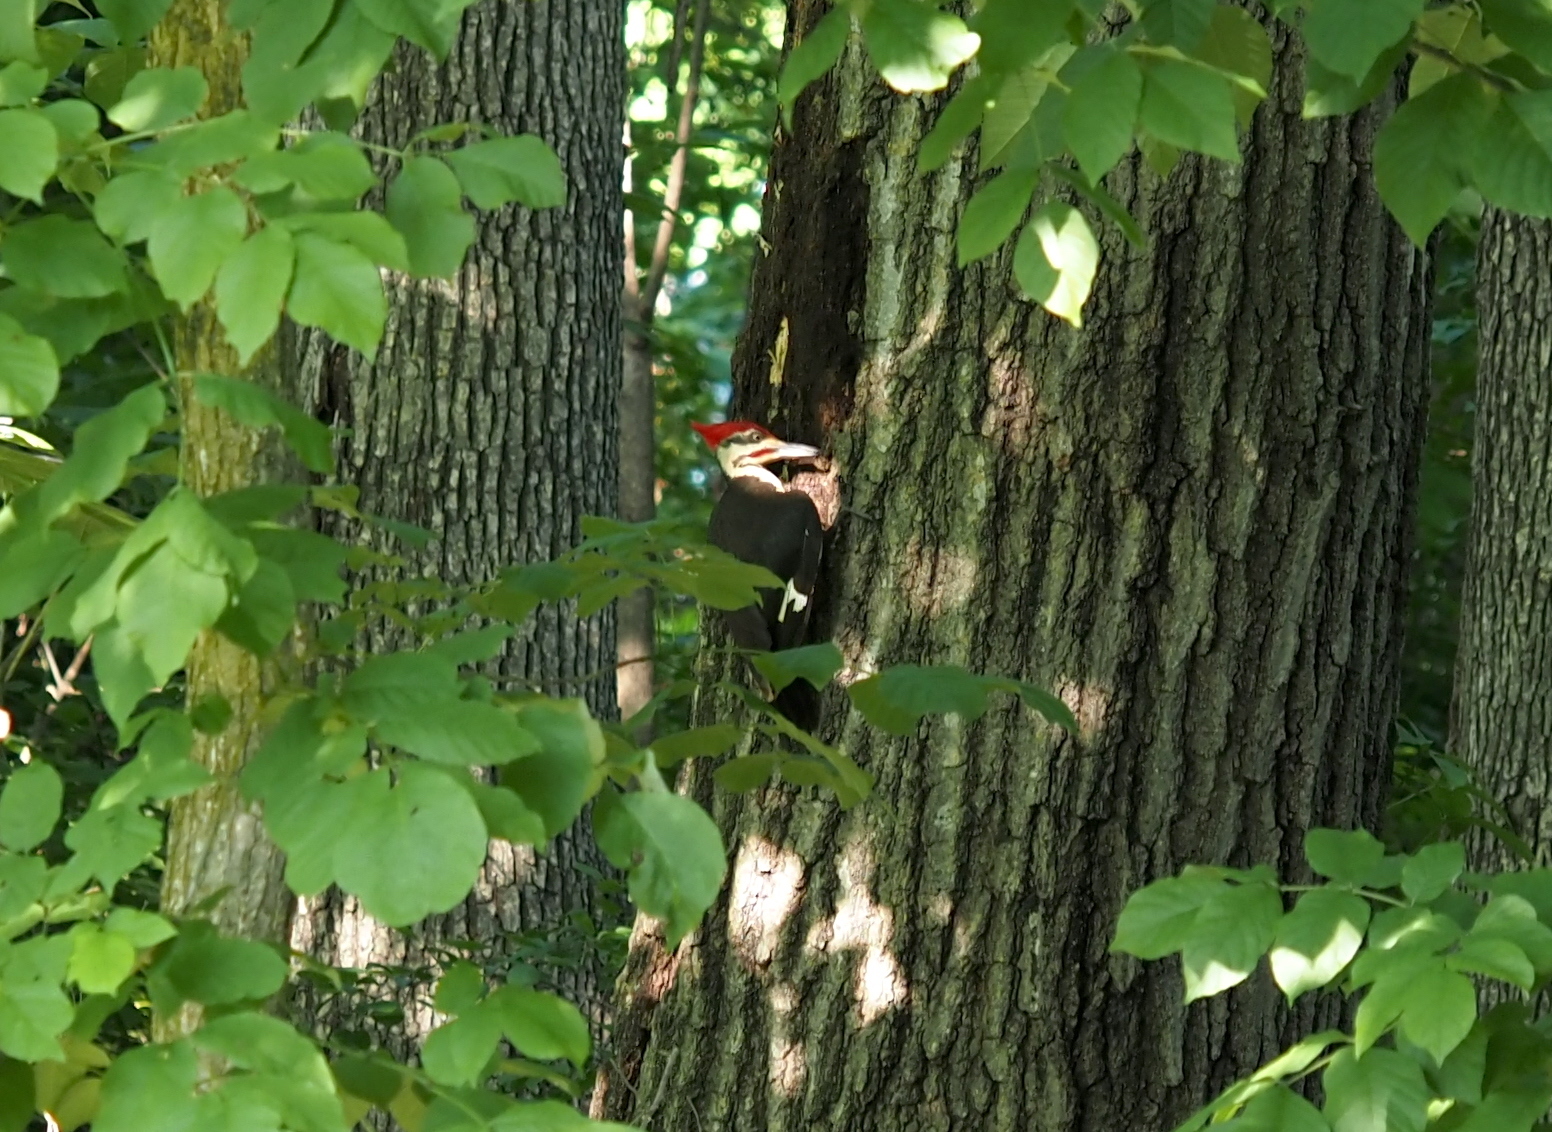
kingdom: Animalia
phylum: Chordata
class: Aves
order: Piciformes
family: Picidae
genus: Dryocopus
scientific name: Dryocopus pileatus
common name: Pileated woodpecker
